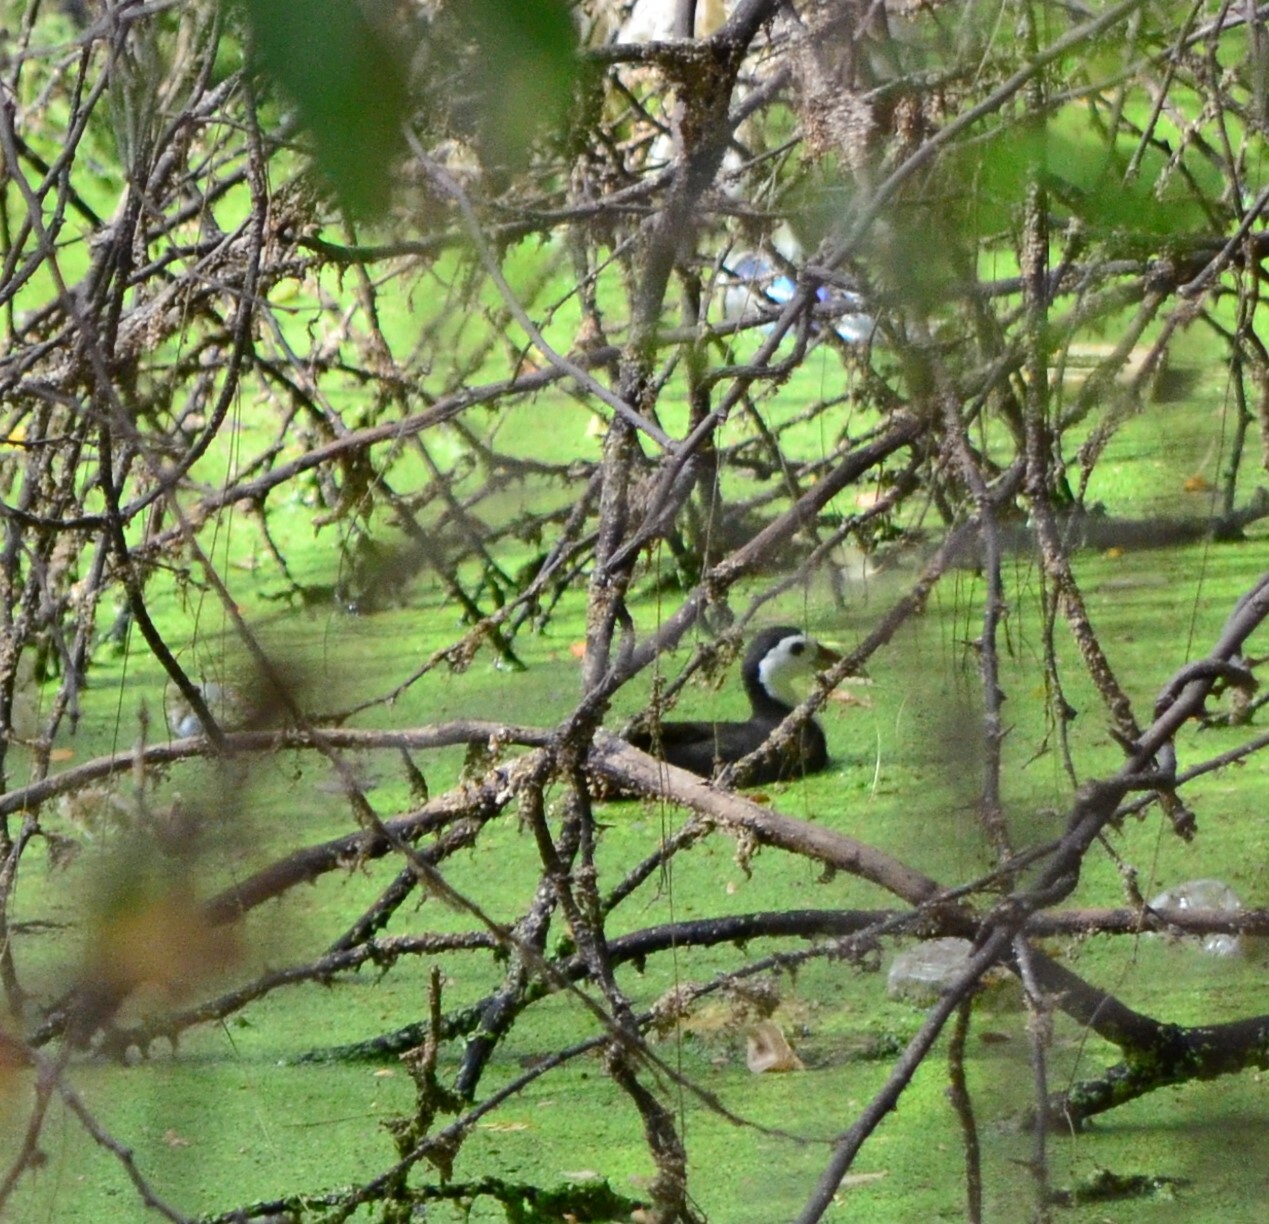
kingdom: Animalia
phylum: Chordata
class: Aves
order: Gruiformes
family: Rallidae
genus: Amaurornis
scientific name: Amaurornis phoenicurus
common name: White-breasted waterhen
